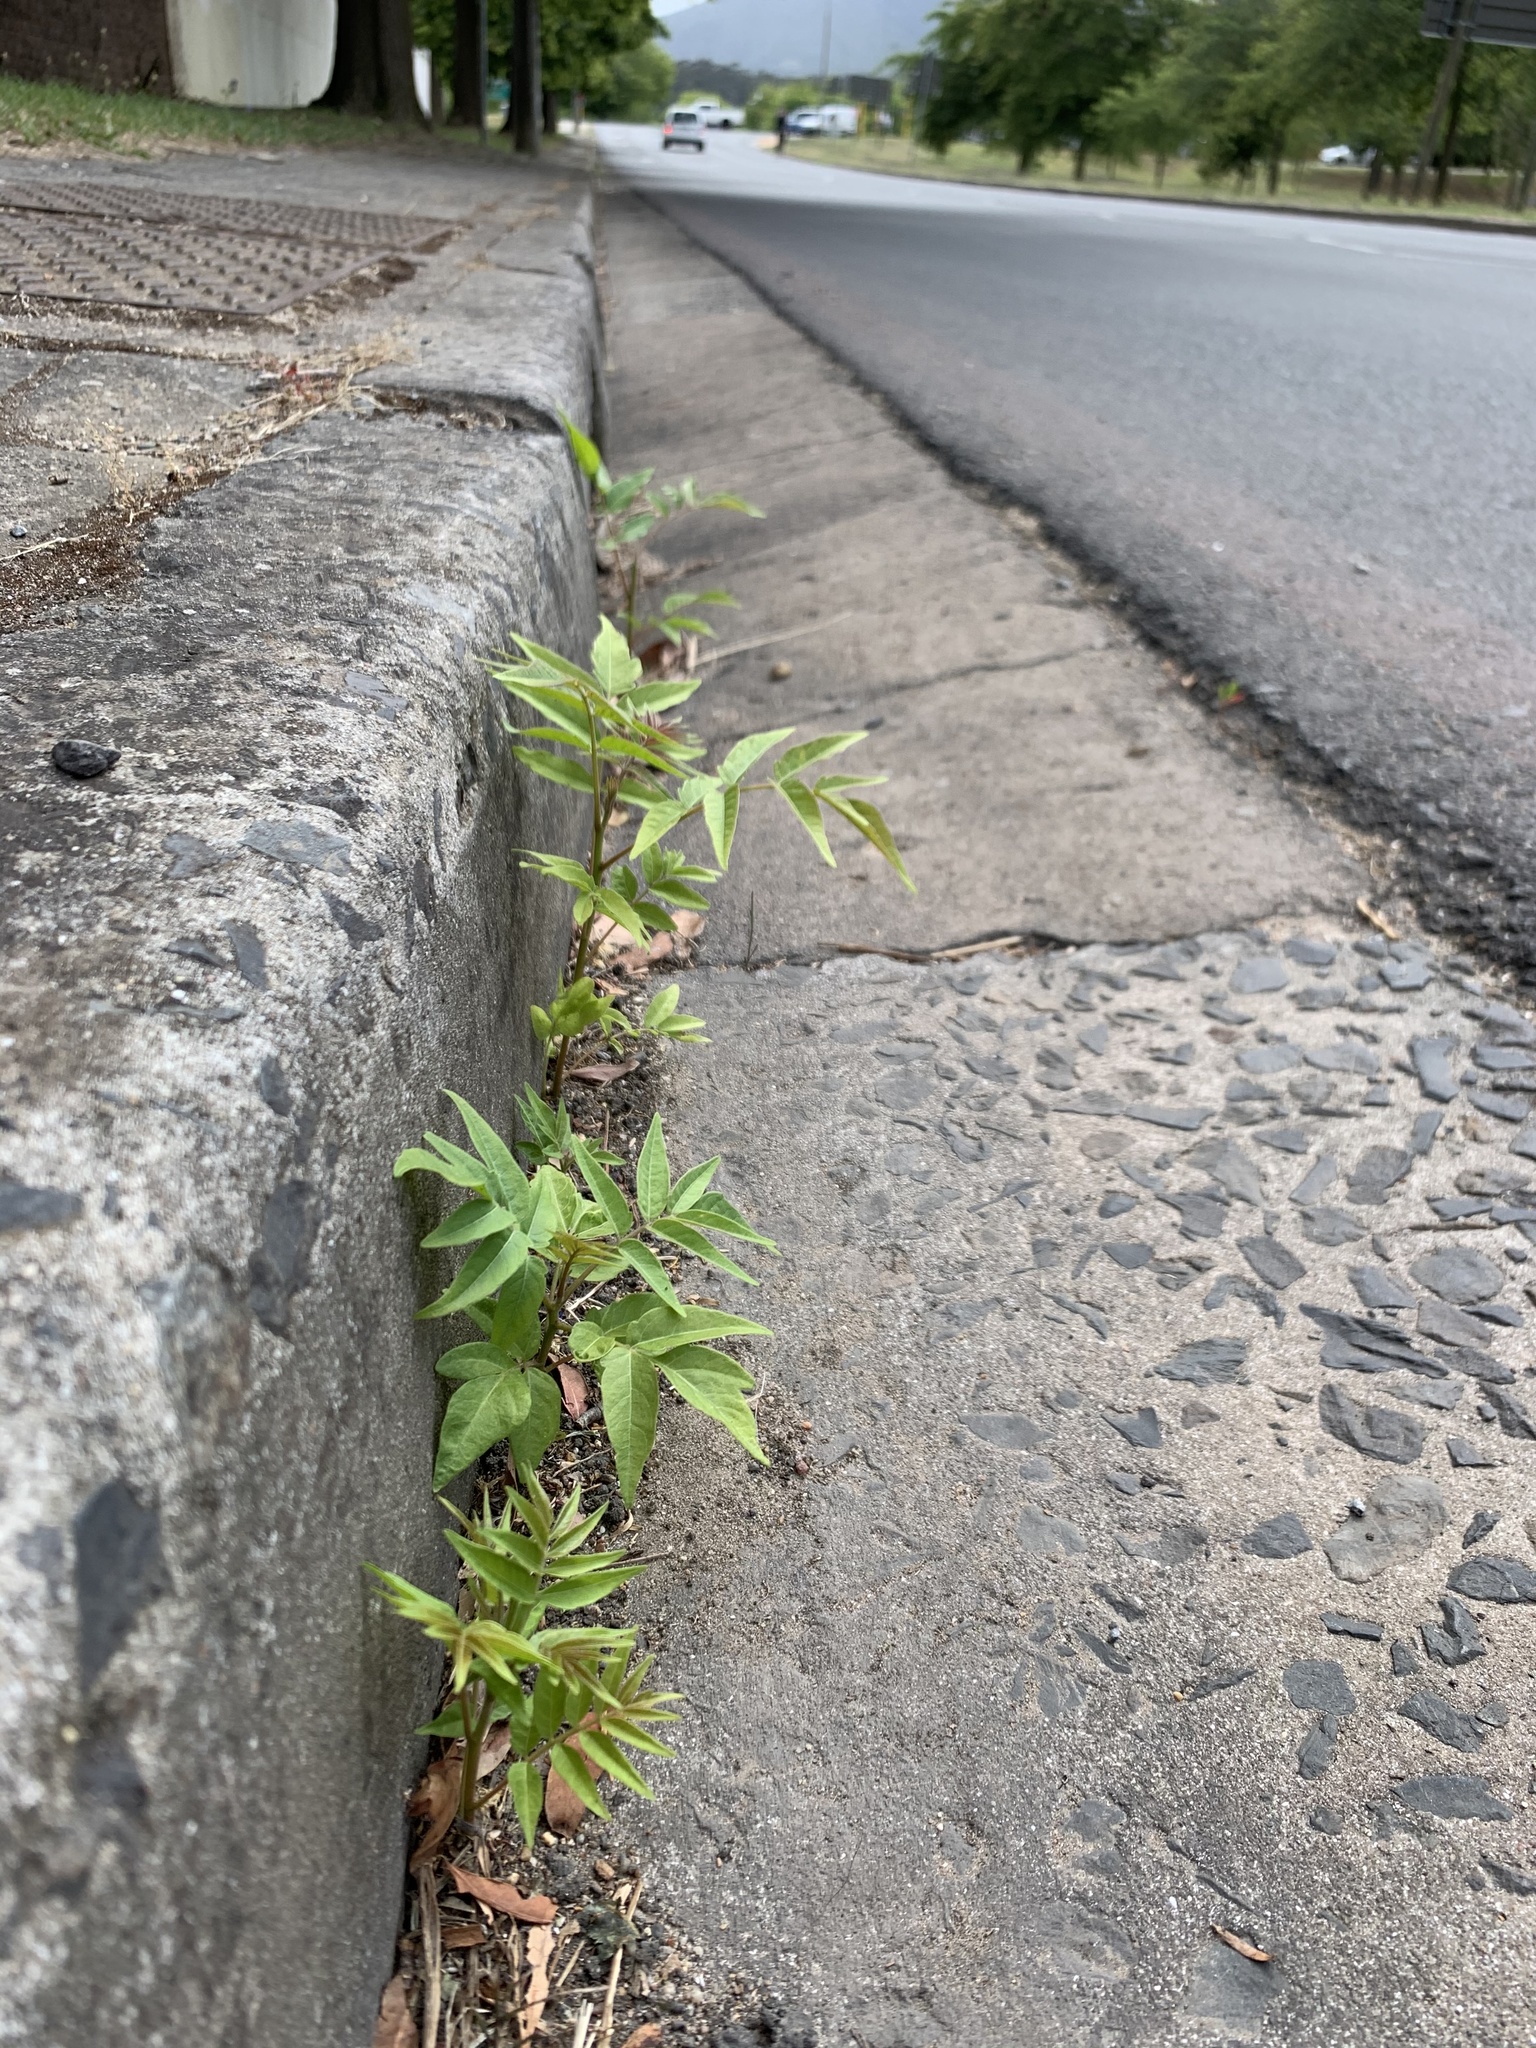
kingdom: Plantae
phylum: Tracheophyta
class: Magnoliopsida
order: Sapindales
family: Simaroubaceae
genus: Ailanthus
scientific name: Ailanthus altissima
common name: Tree-of-heaven
